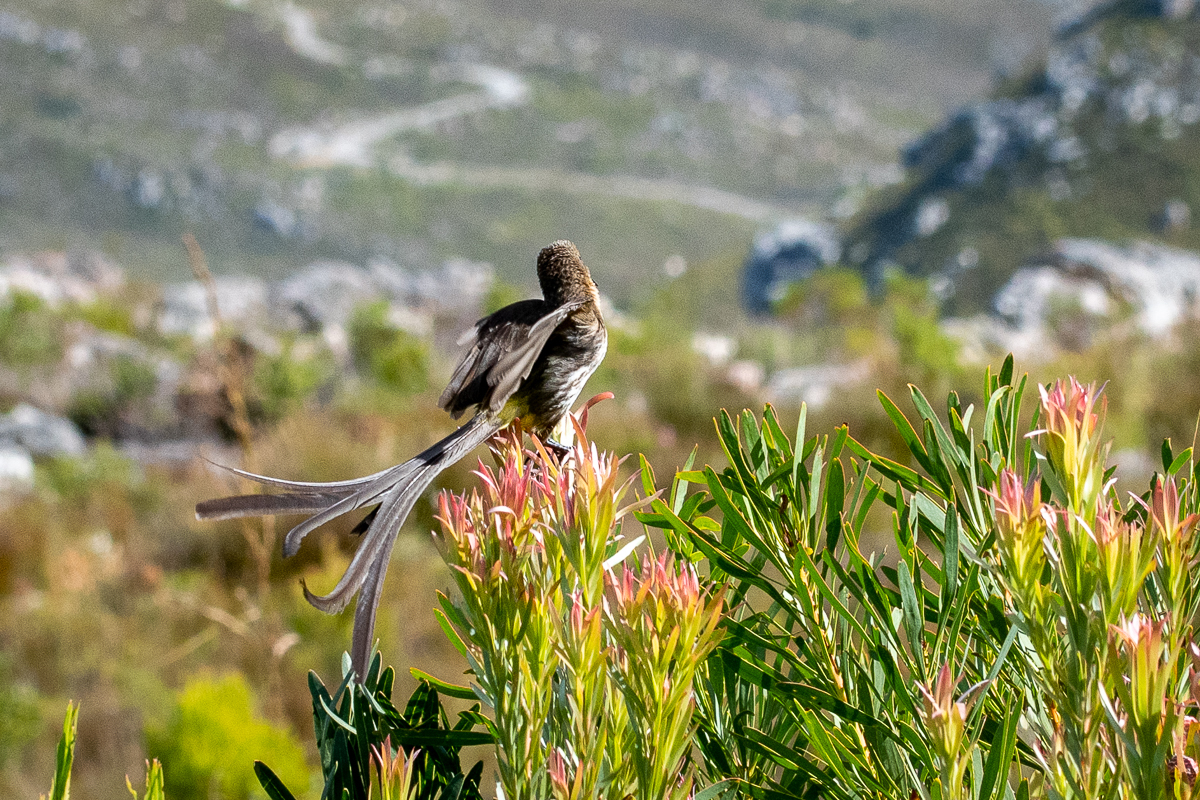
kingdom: Animalia
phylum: Chordata
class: Aves
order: Passeriformes
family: Promeropidae
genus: Promerops
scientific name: Promerops cafer
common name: Cape sugarbird
